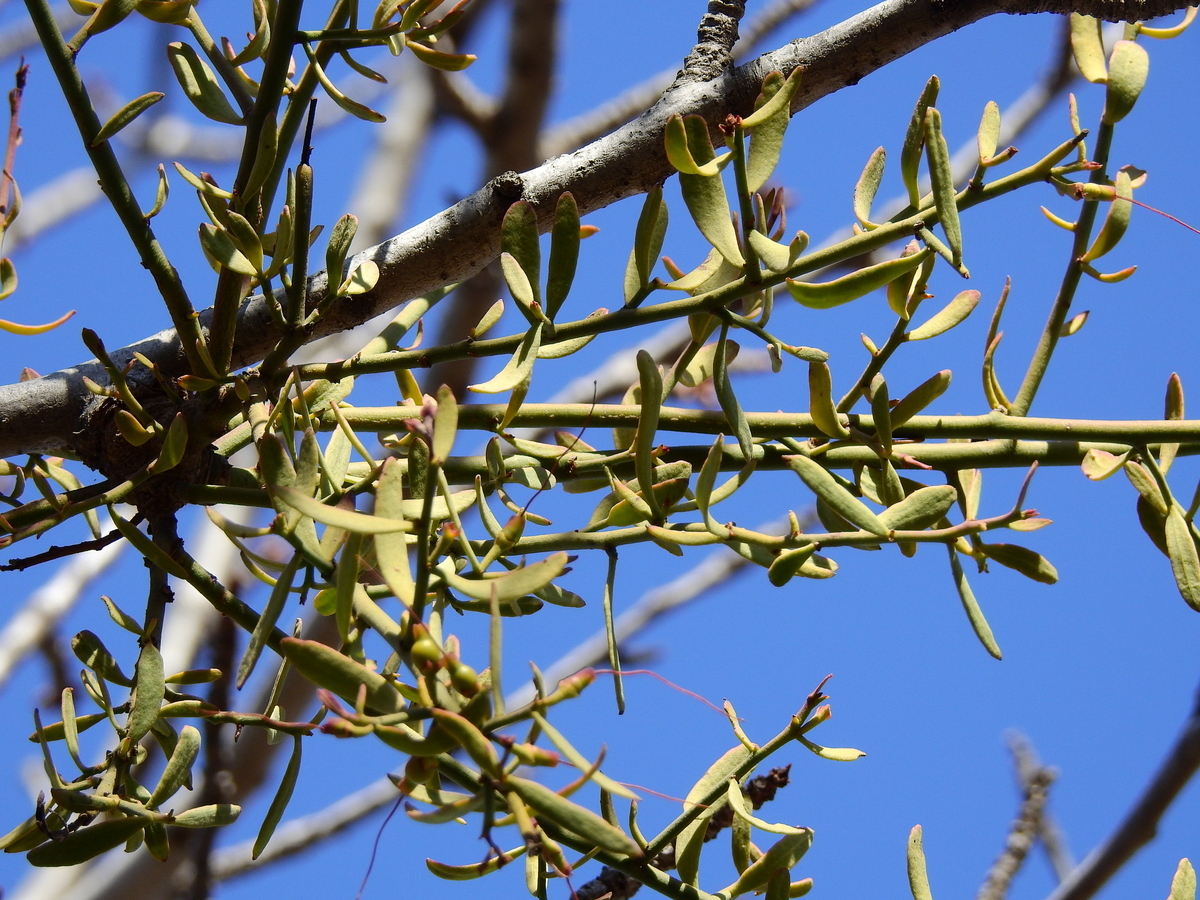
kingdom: Plantae
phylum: Tracheophyta
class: Magnoliopsida
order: Santalales
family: Loranthaceae
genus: Ligaria
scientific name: Ligaria cuneifolia
